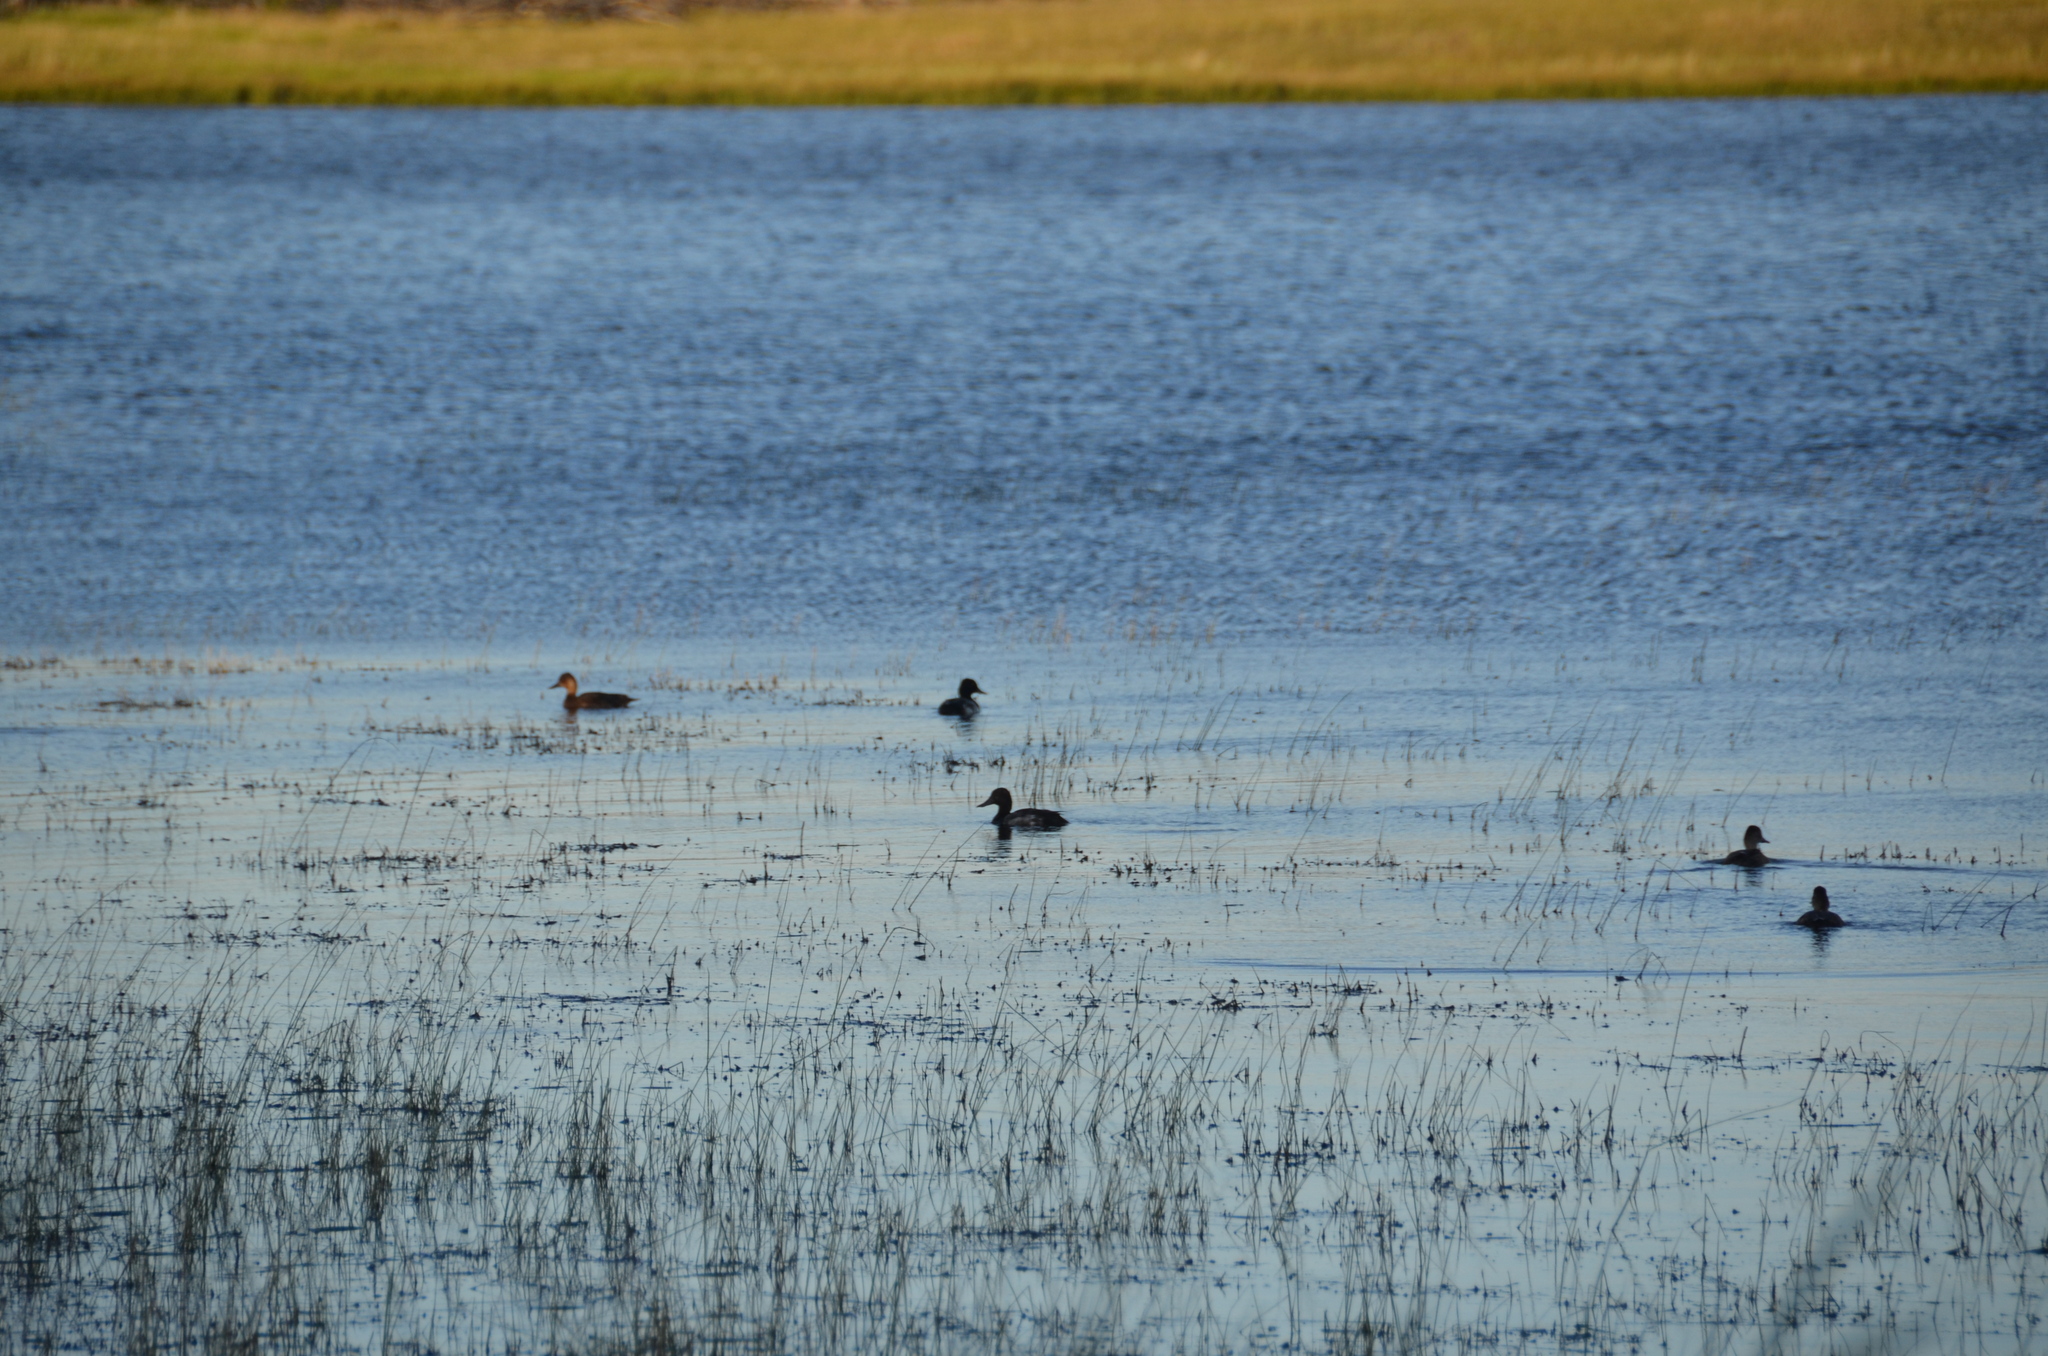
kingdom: Animalia
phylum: Chordata
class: Aves
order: Anseriformes
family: Anatidae
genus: Aythya
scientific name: Aythya affinis
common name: Lesser scaup
